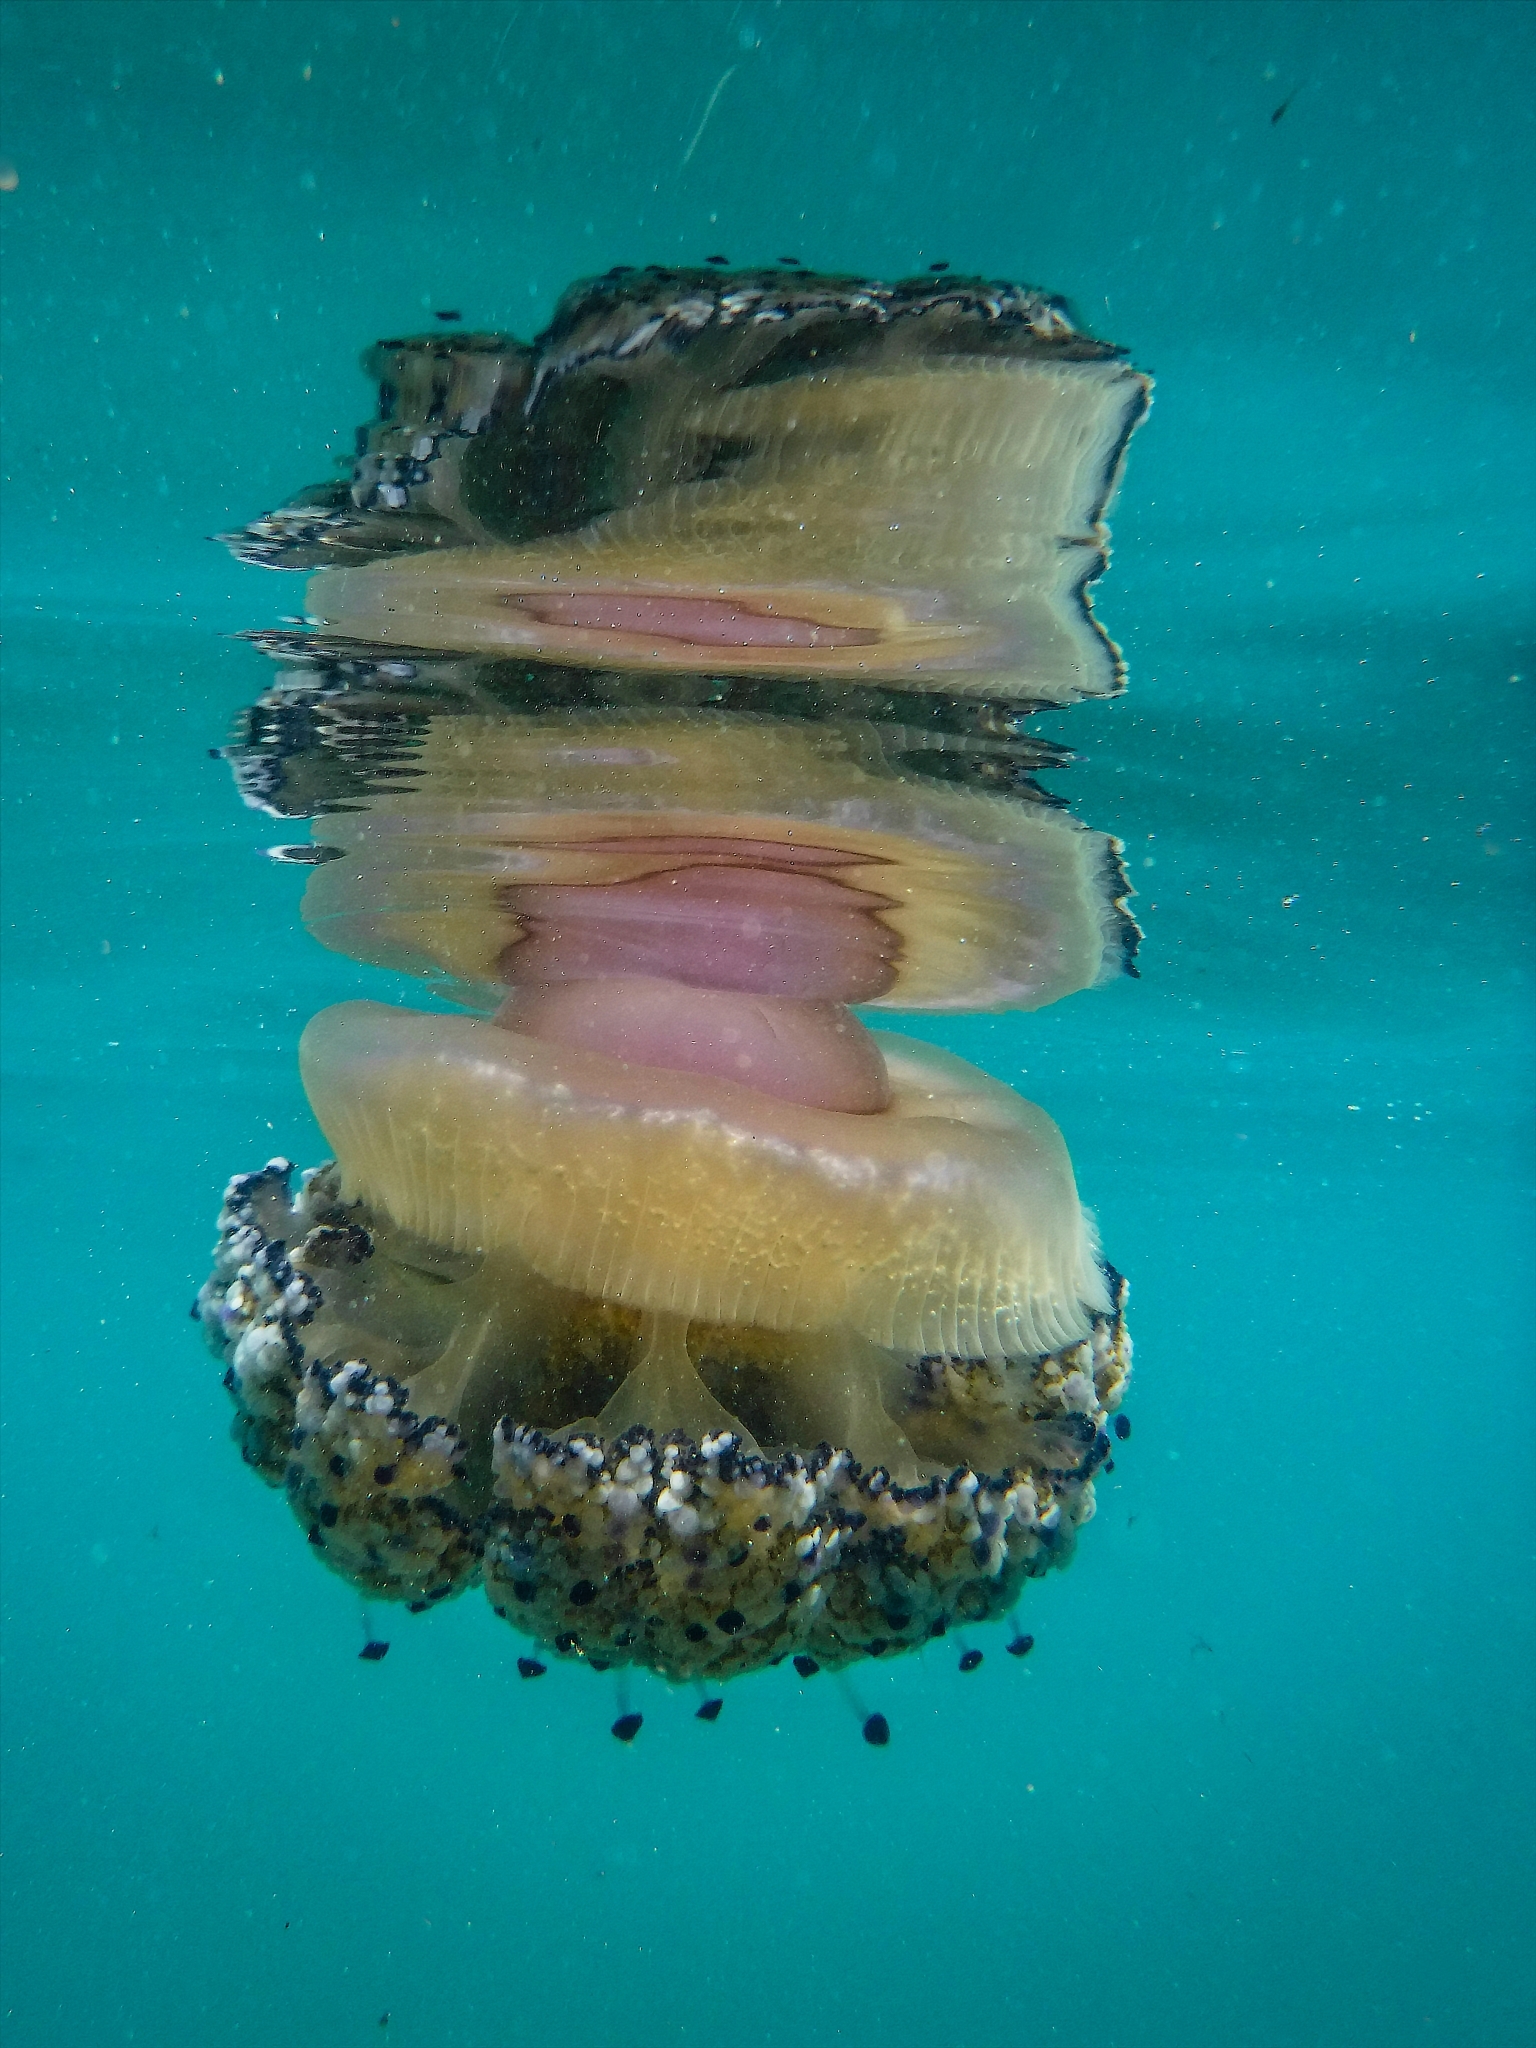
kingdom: Animalia
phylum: Cnidaria
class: Scyphozoa
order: Rhizostomeae
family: Cepheidae
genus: Cotylorhiza
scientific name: Cotylorhiza tuberculata
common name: Mediterranean jelly
